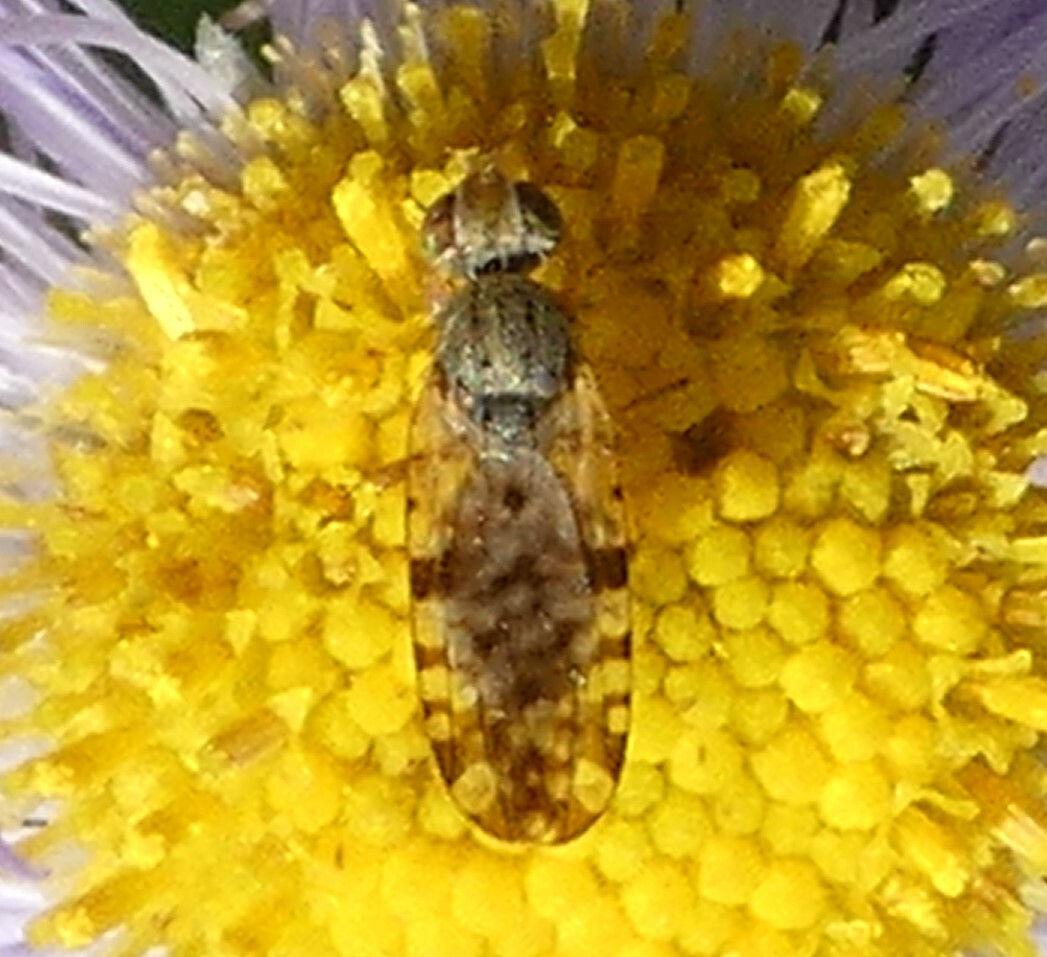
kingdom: Animalia
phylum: Arthropoda
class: Insecta
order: Diptera
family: Tephritidae
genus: Dioxyna
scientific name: Dioxyna picciola
